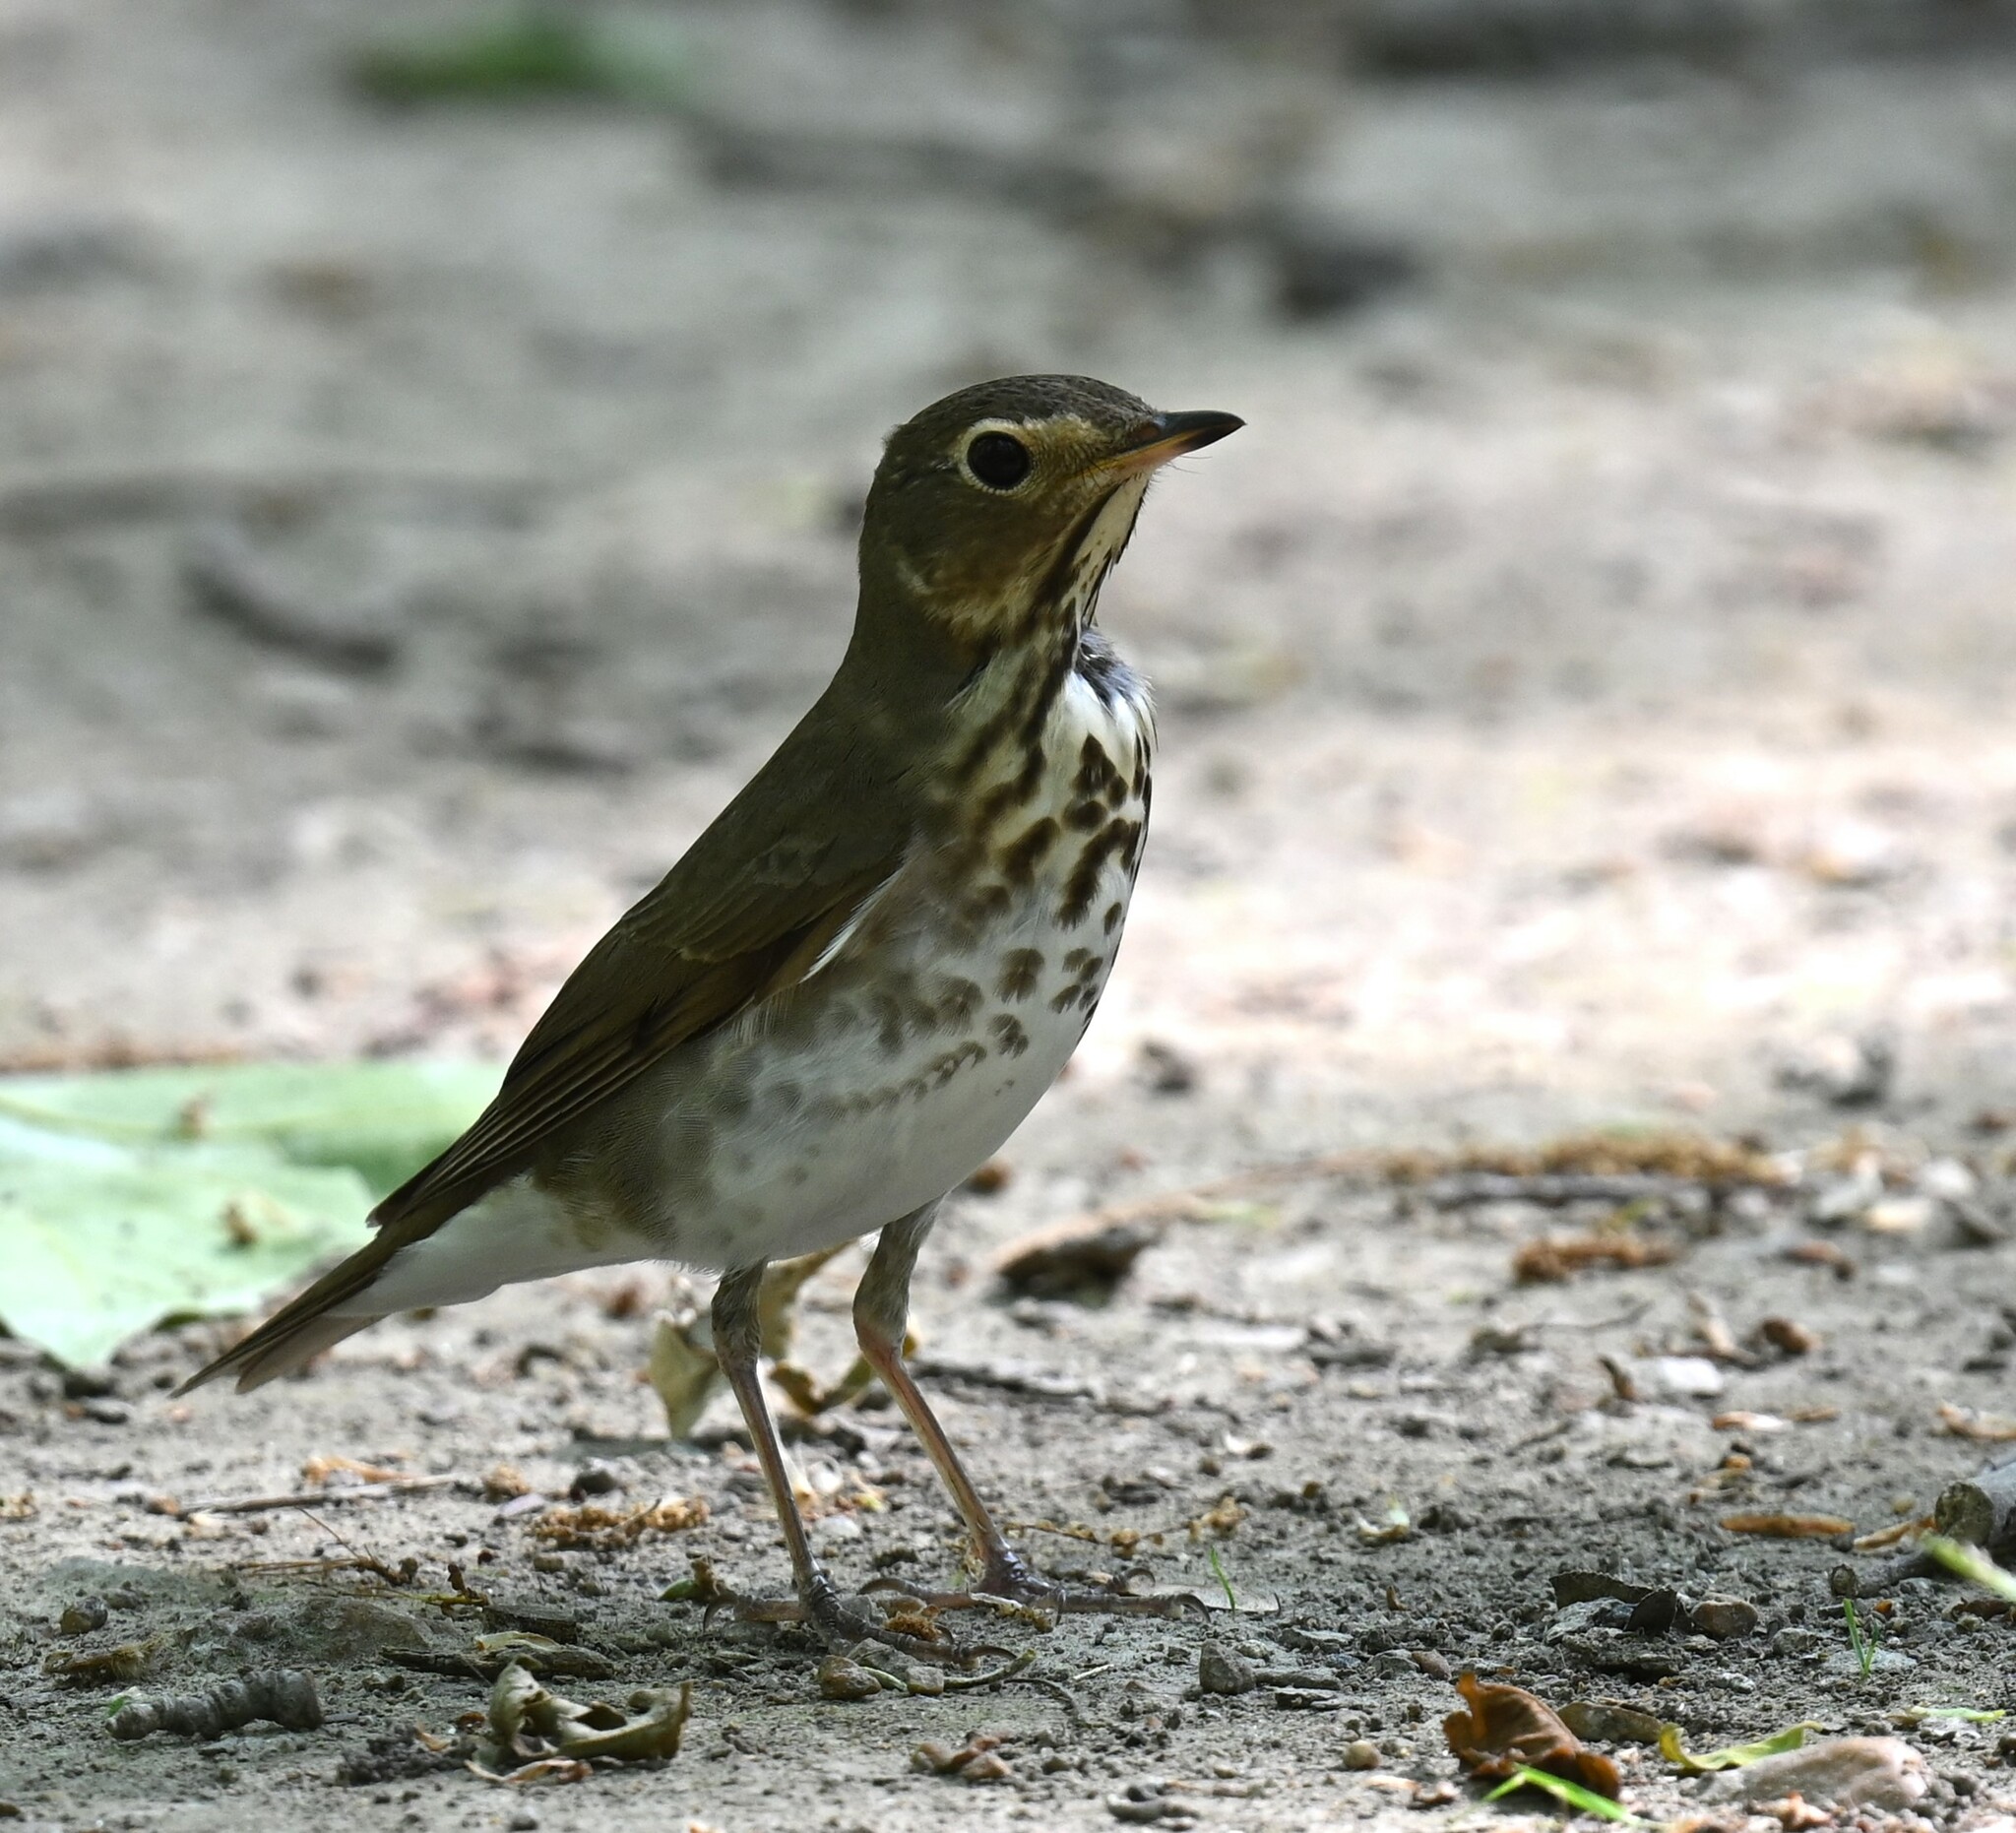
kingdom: Animalia
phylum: Chordata
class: Aves
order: Passeriformes
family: Turdidae
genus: Catharus
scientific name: Catharus ustulatus
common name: Swainson's thrush
